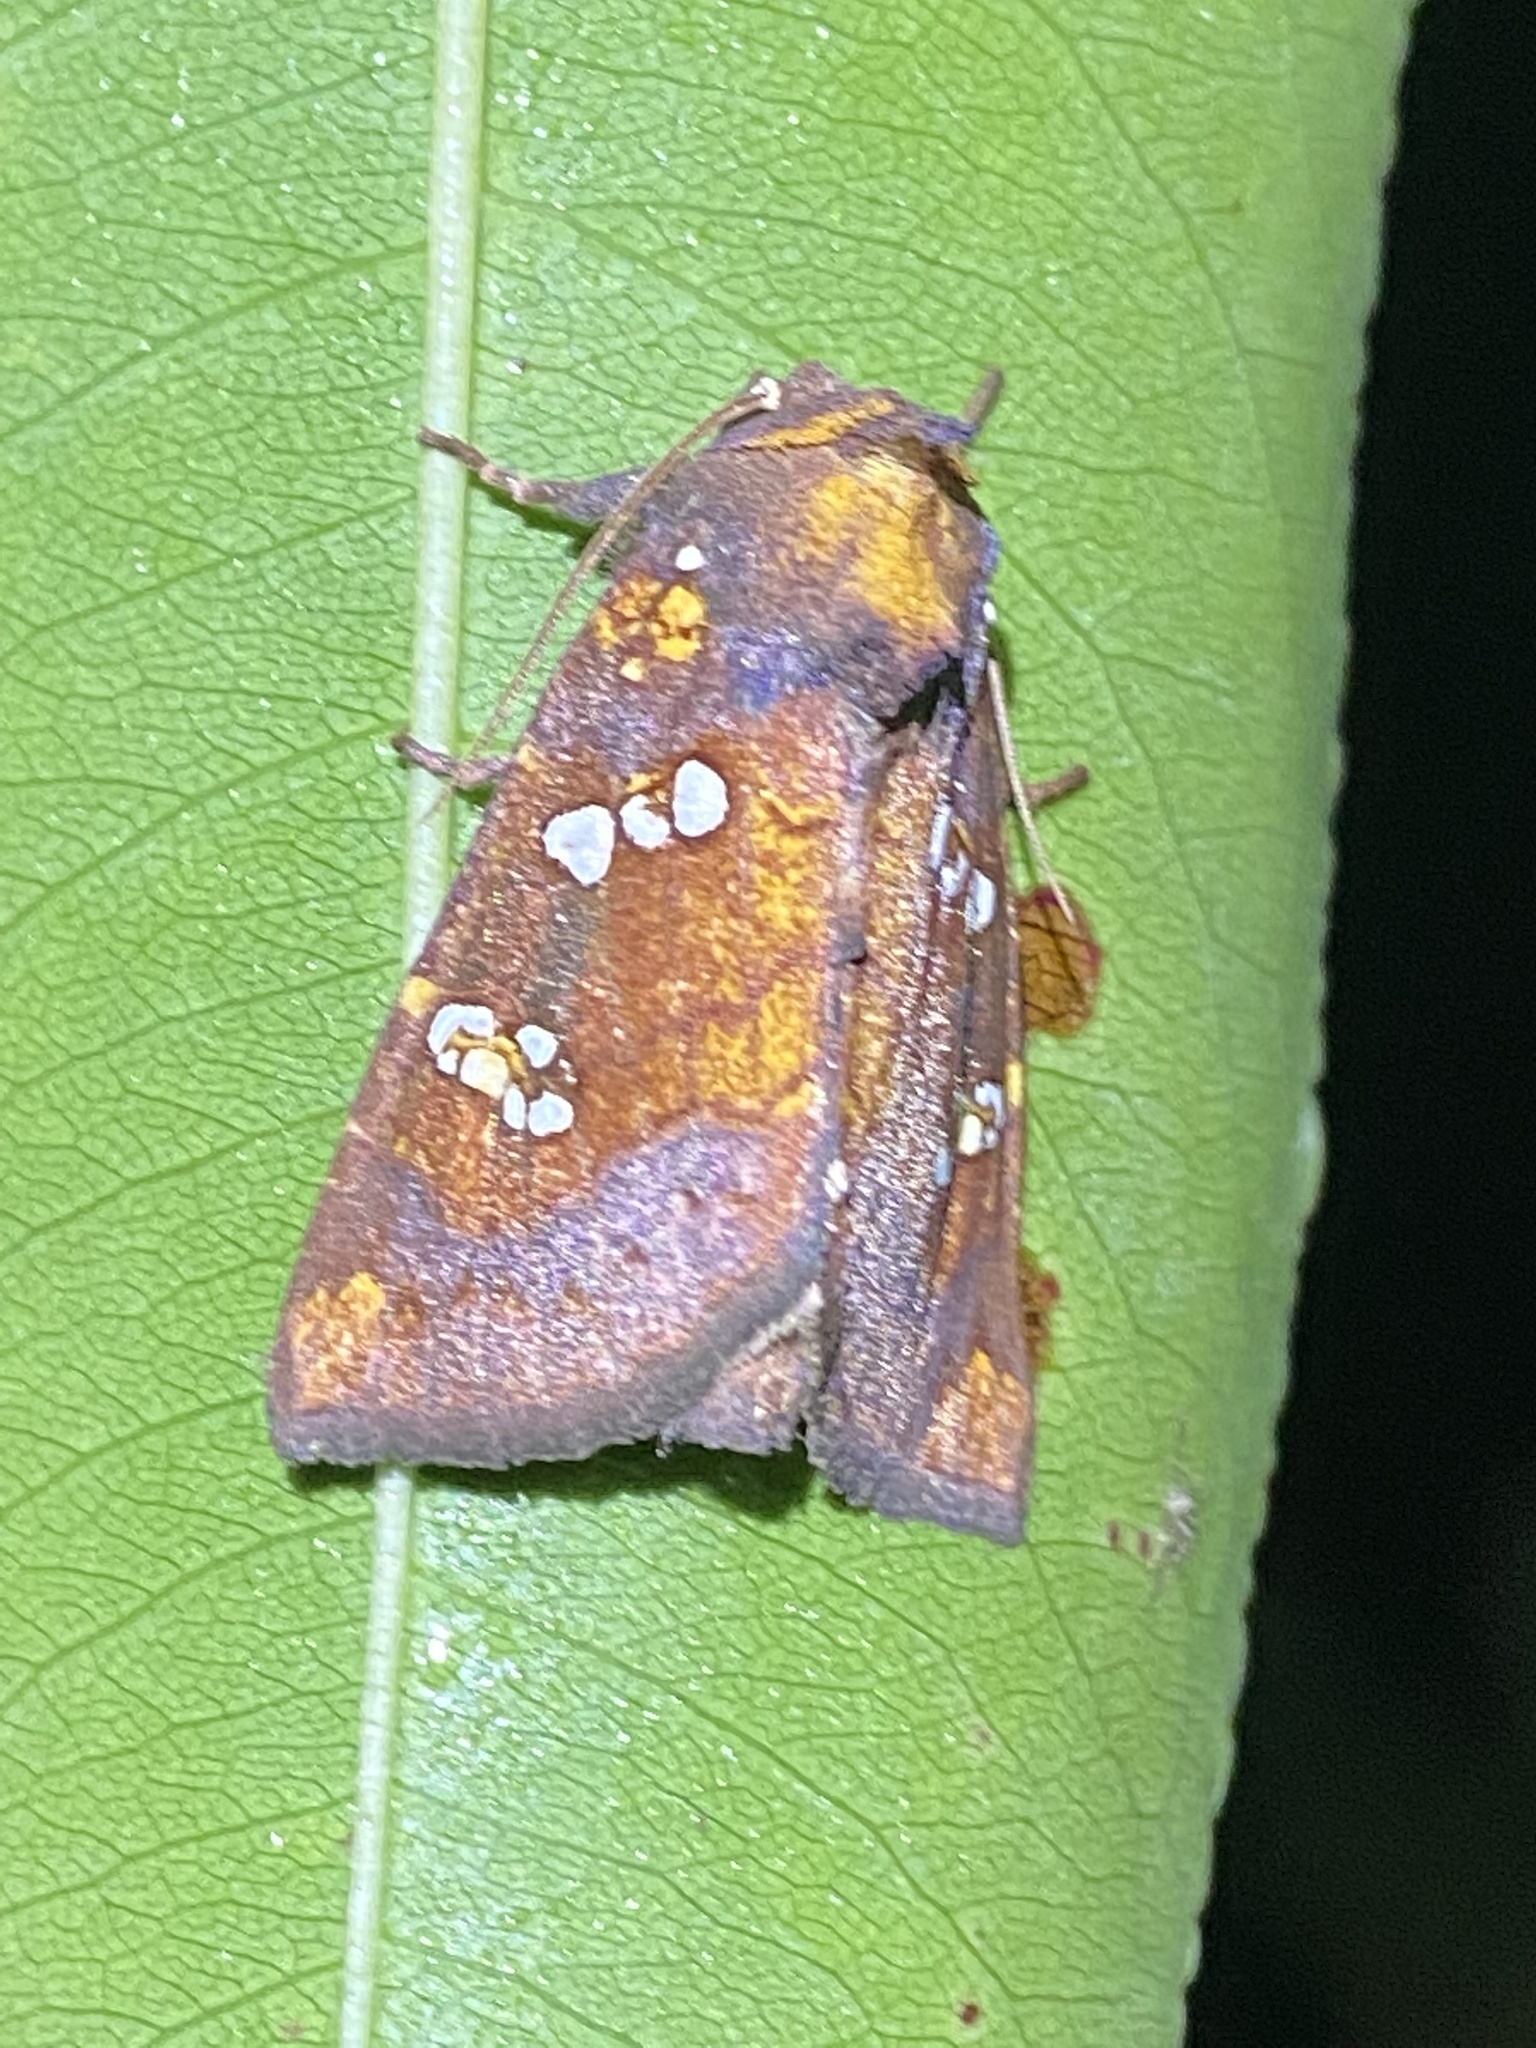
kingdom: Animalia
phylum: Arthropoda
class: Insecta
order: Lepidoptera
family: Noctuidae
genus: Papaipema
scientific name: Papaipema baptisiae
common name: Wild indigo borer moth
